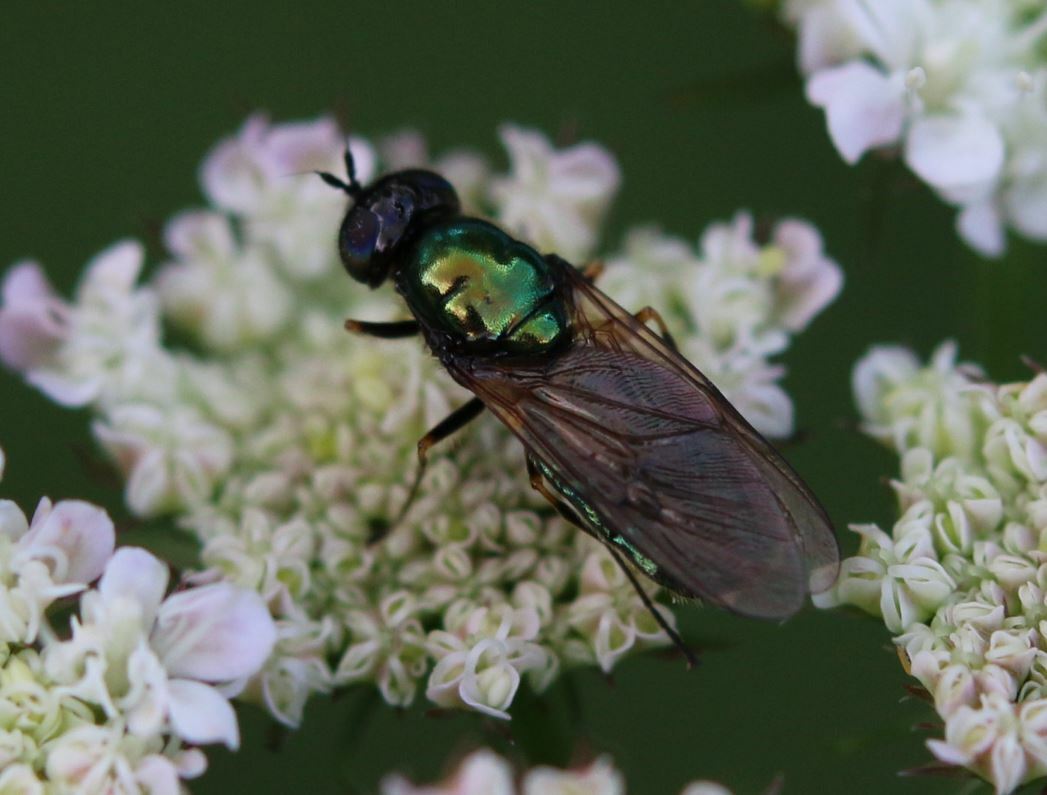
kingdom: Animalia
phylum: Arthropoda
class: Insecta
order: Diptera
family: Stratiomyidae
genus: Chloromyia
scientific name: Chloromyia formosa
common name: Soldier fly
